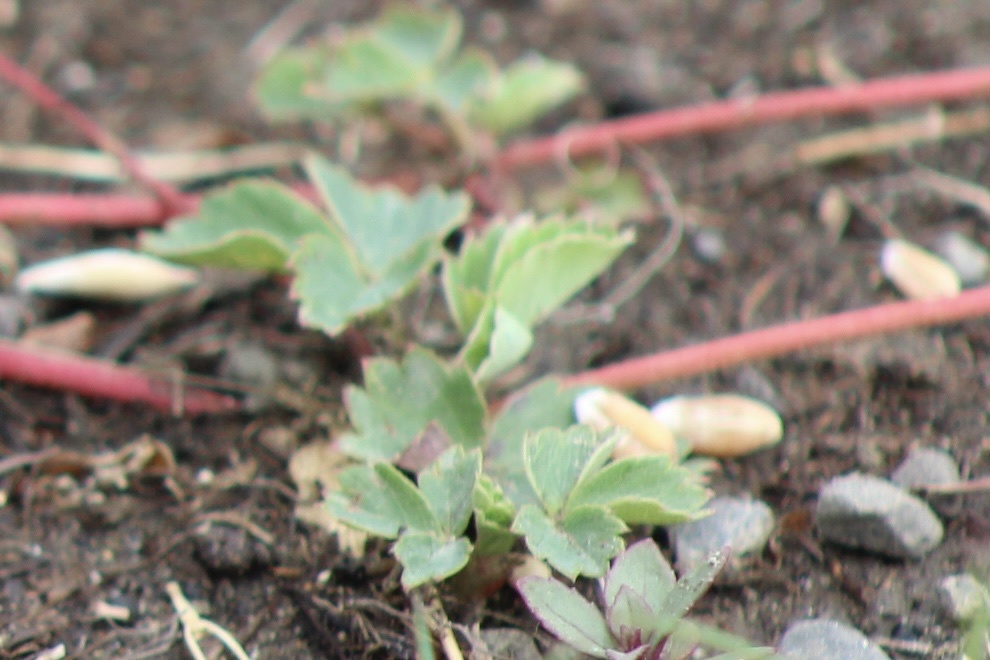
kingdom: Plantae
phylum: Tracheophyta
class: Magnoliopsida
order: Rosales
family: Rosaceae
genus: Sibbaldia
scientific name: Sibbaldia procumbens
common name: Creeping sibbaldia
